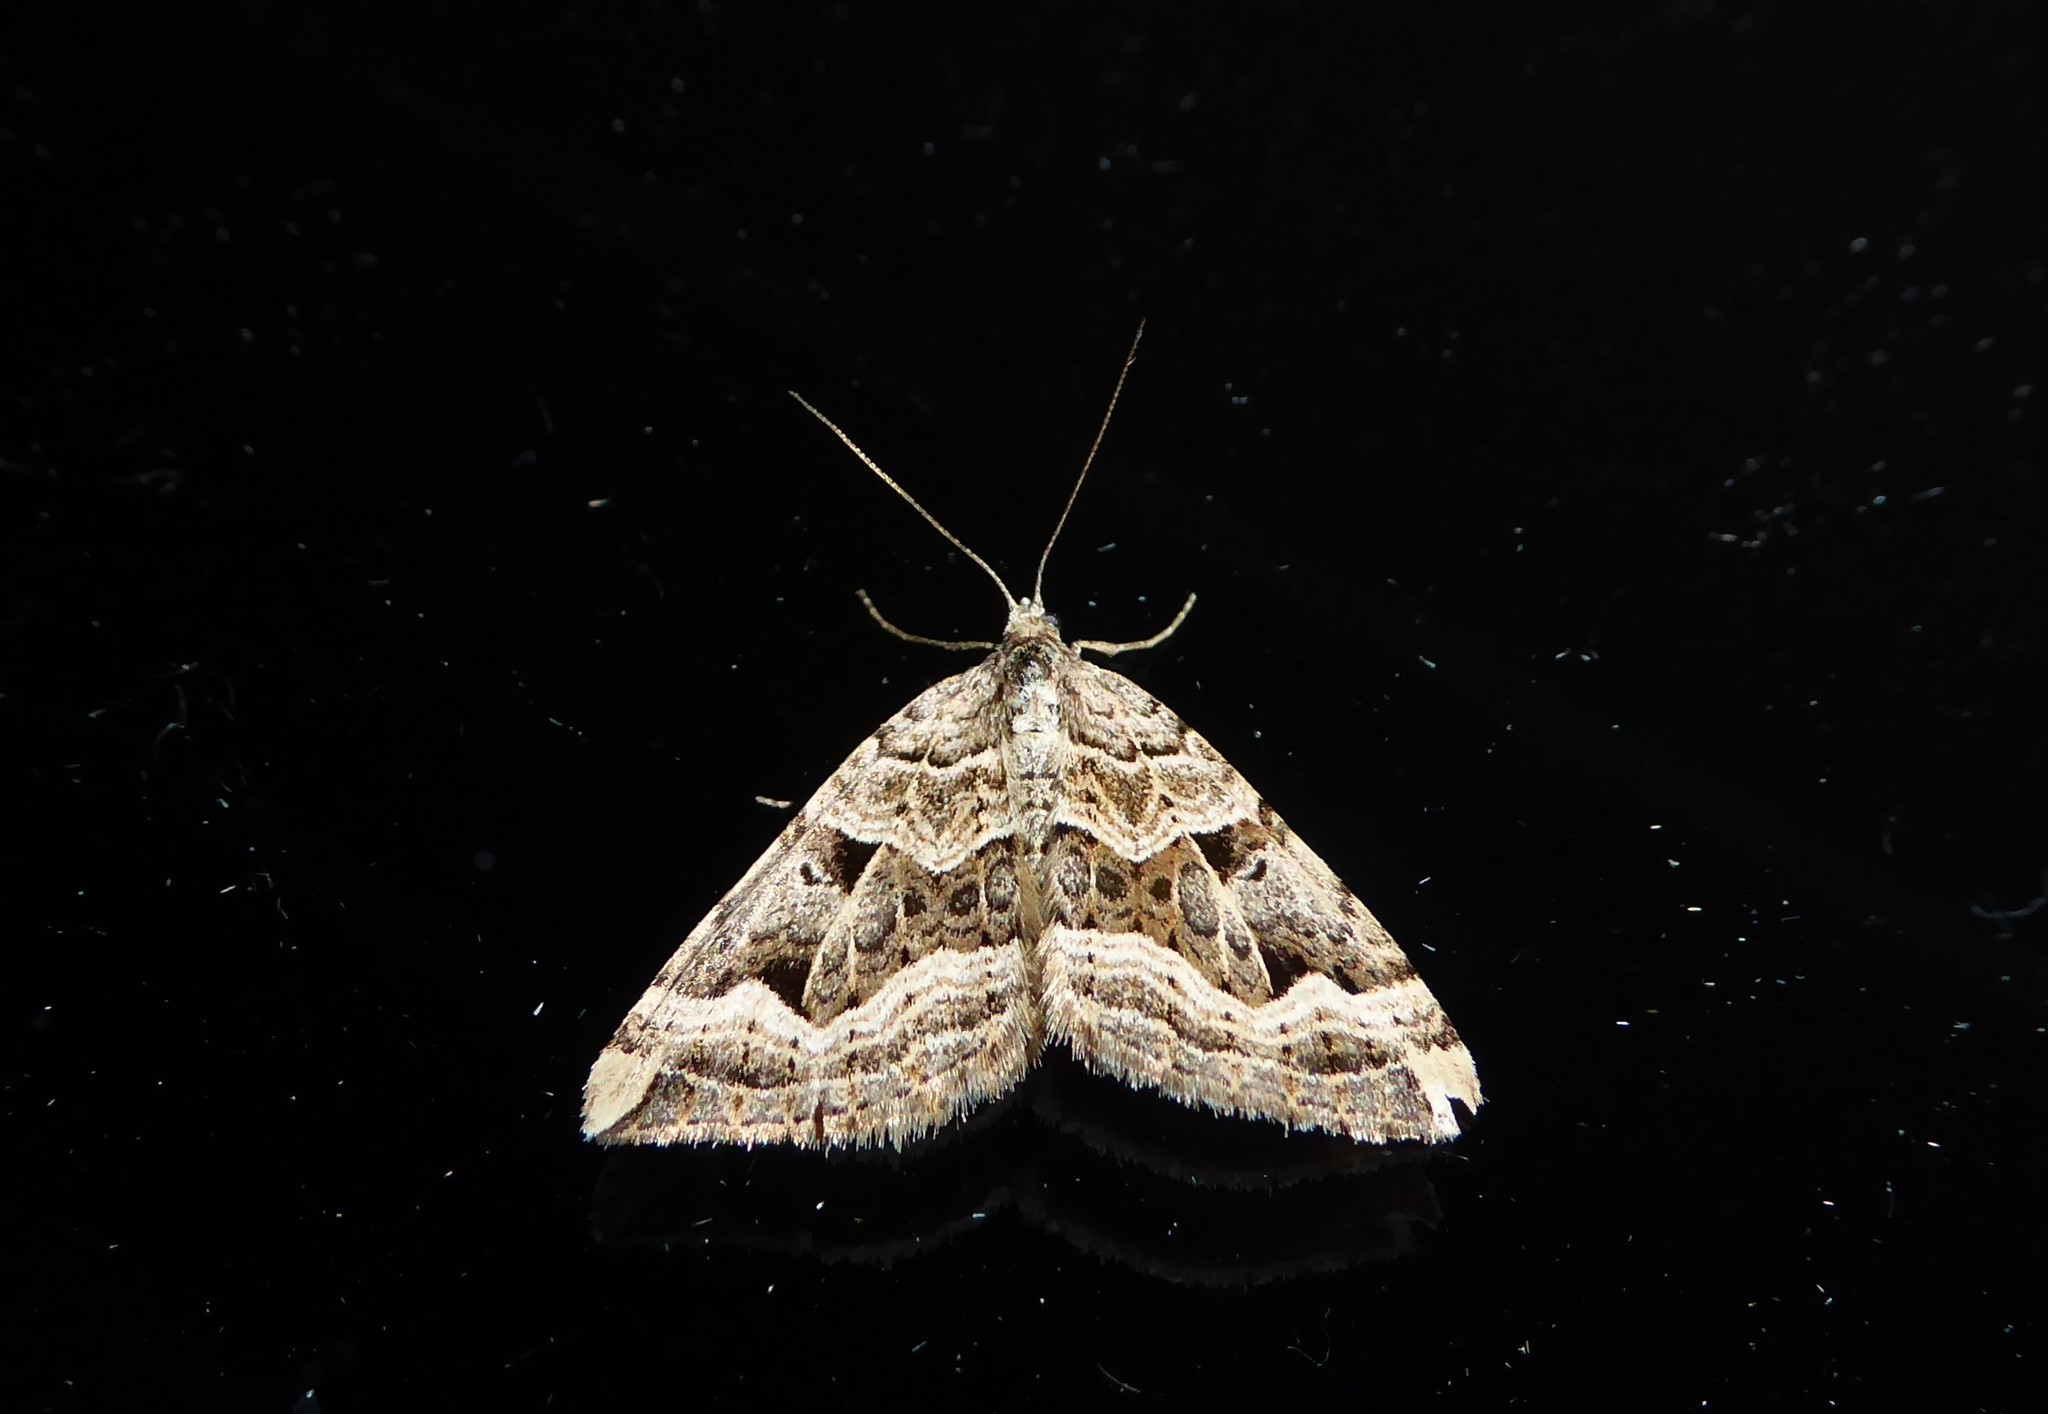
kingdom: Animalia
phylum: Arthropoda
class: Insecta
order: Lepidoptera
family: Geometridae
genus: Xanthorhoe
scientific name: Xanthorhoe semifissata
